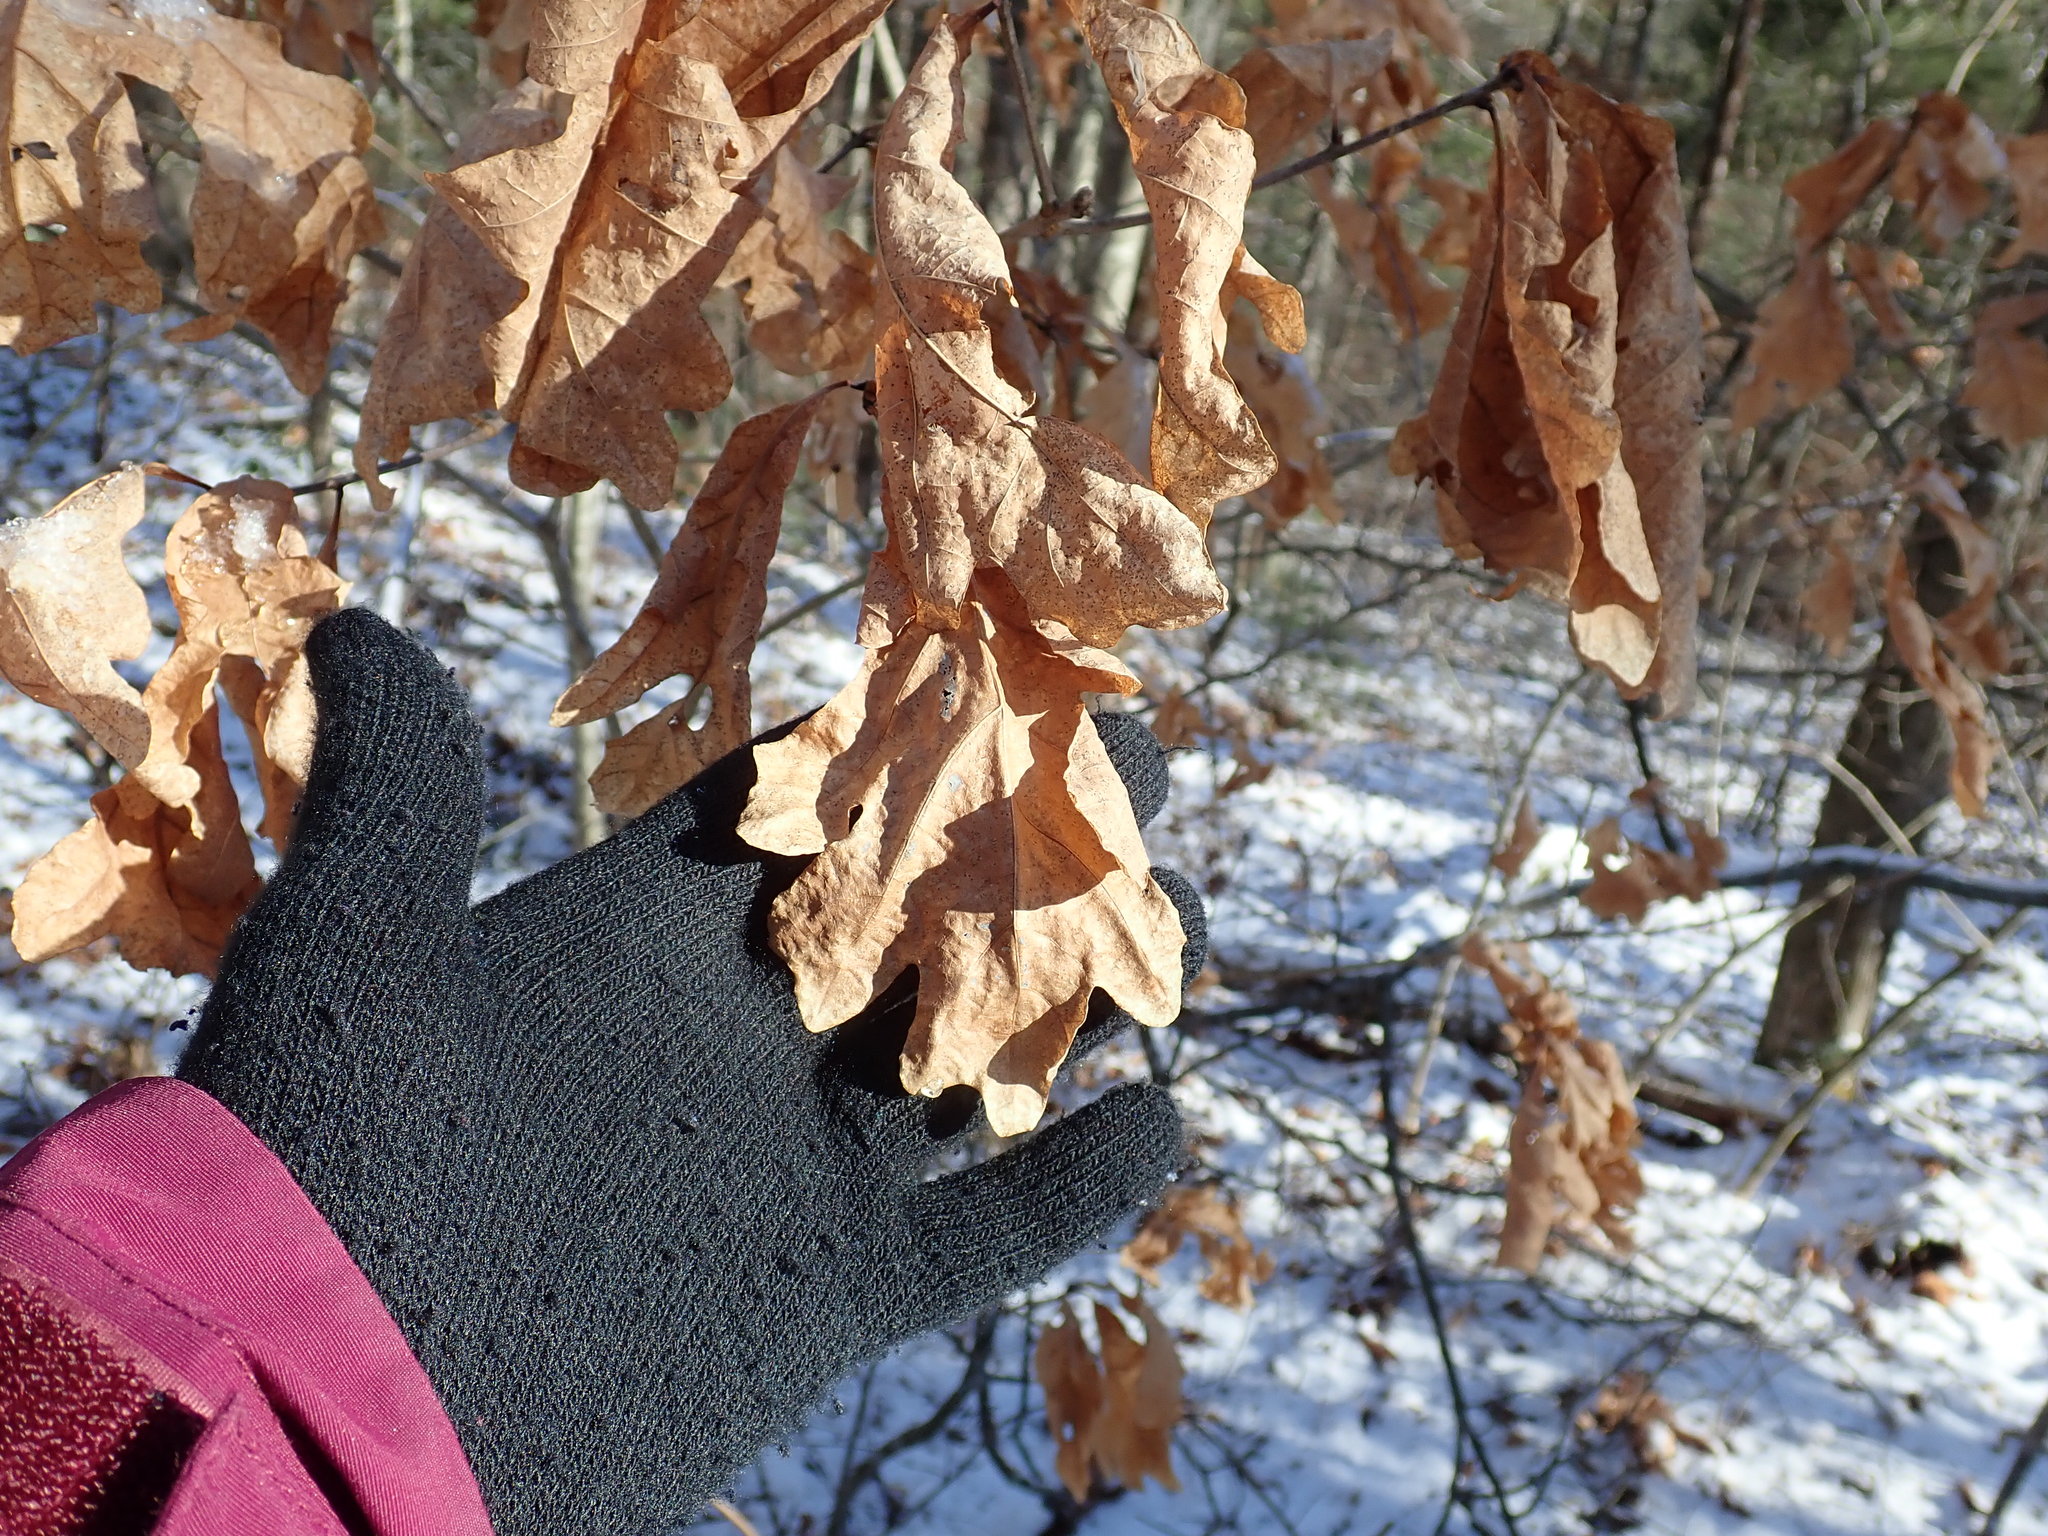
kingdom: Plantae
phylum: Tracheophyta
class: Magnoliopsida
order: Fagales
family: Fagaceae
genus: Quercus
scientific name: Quercus alba
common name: White oak
